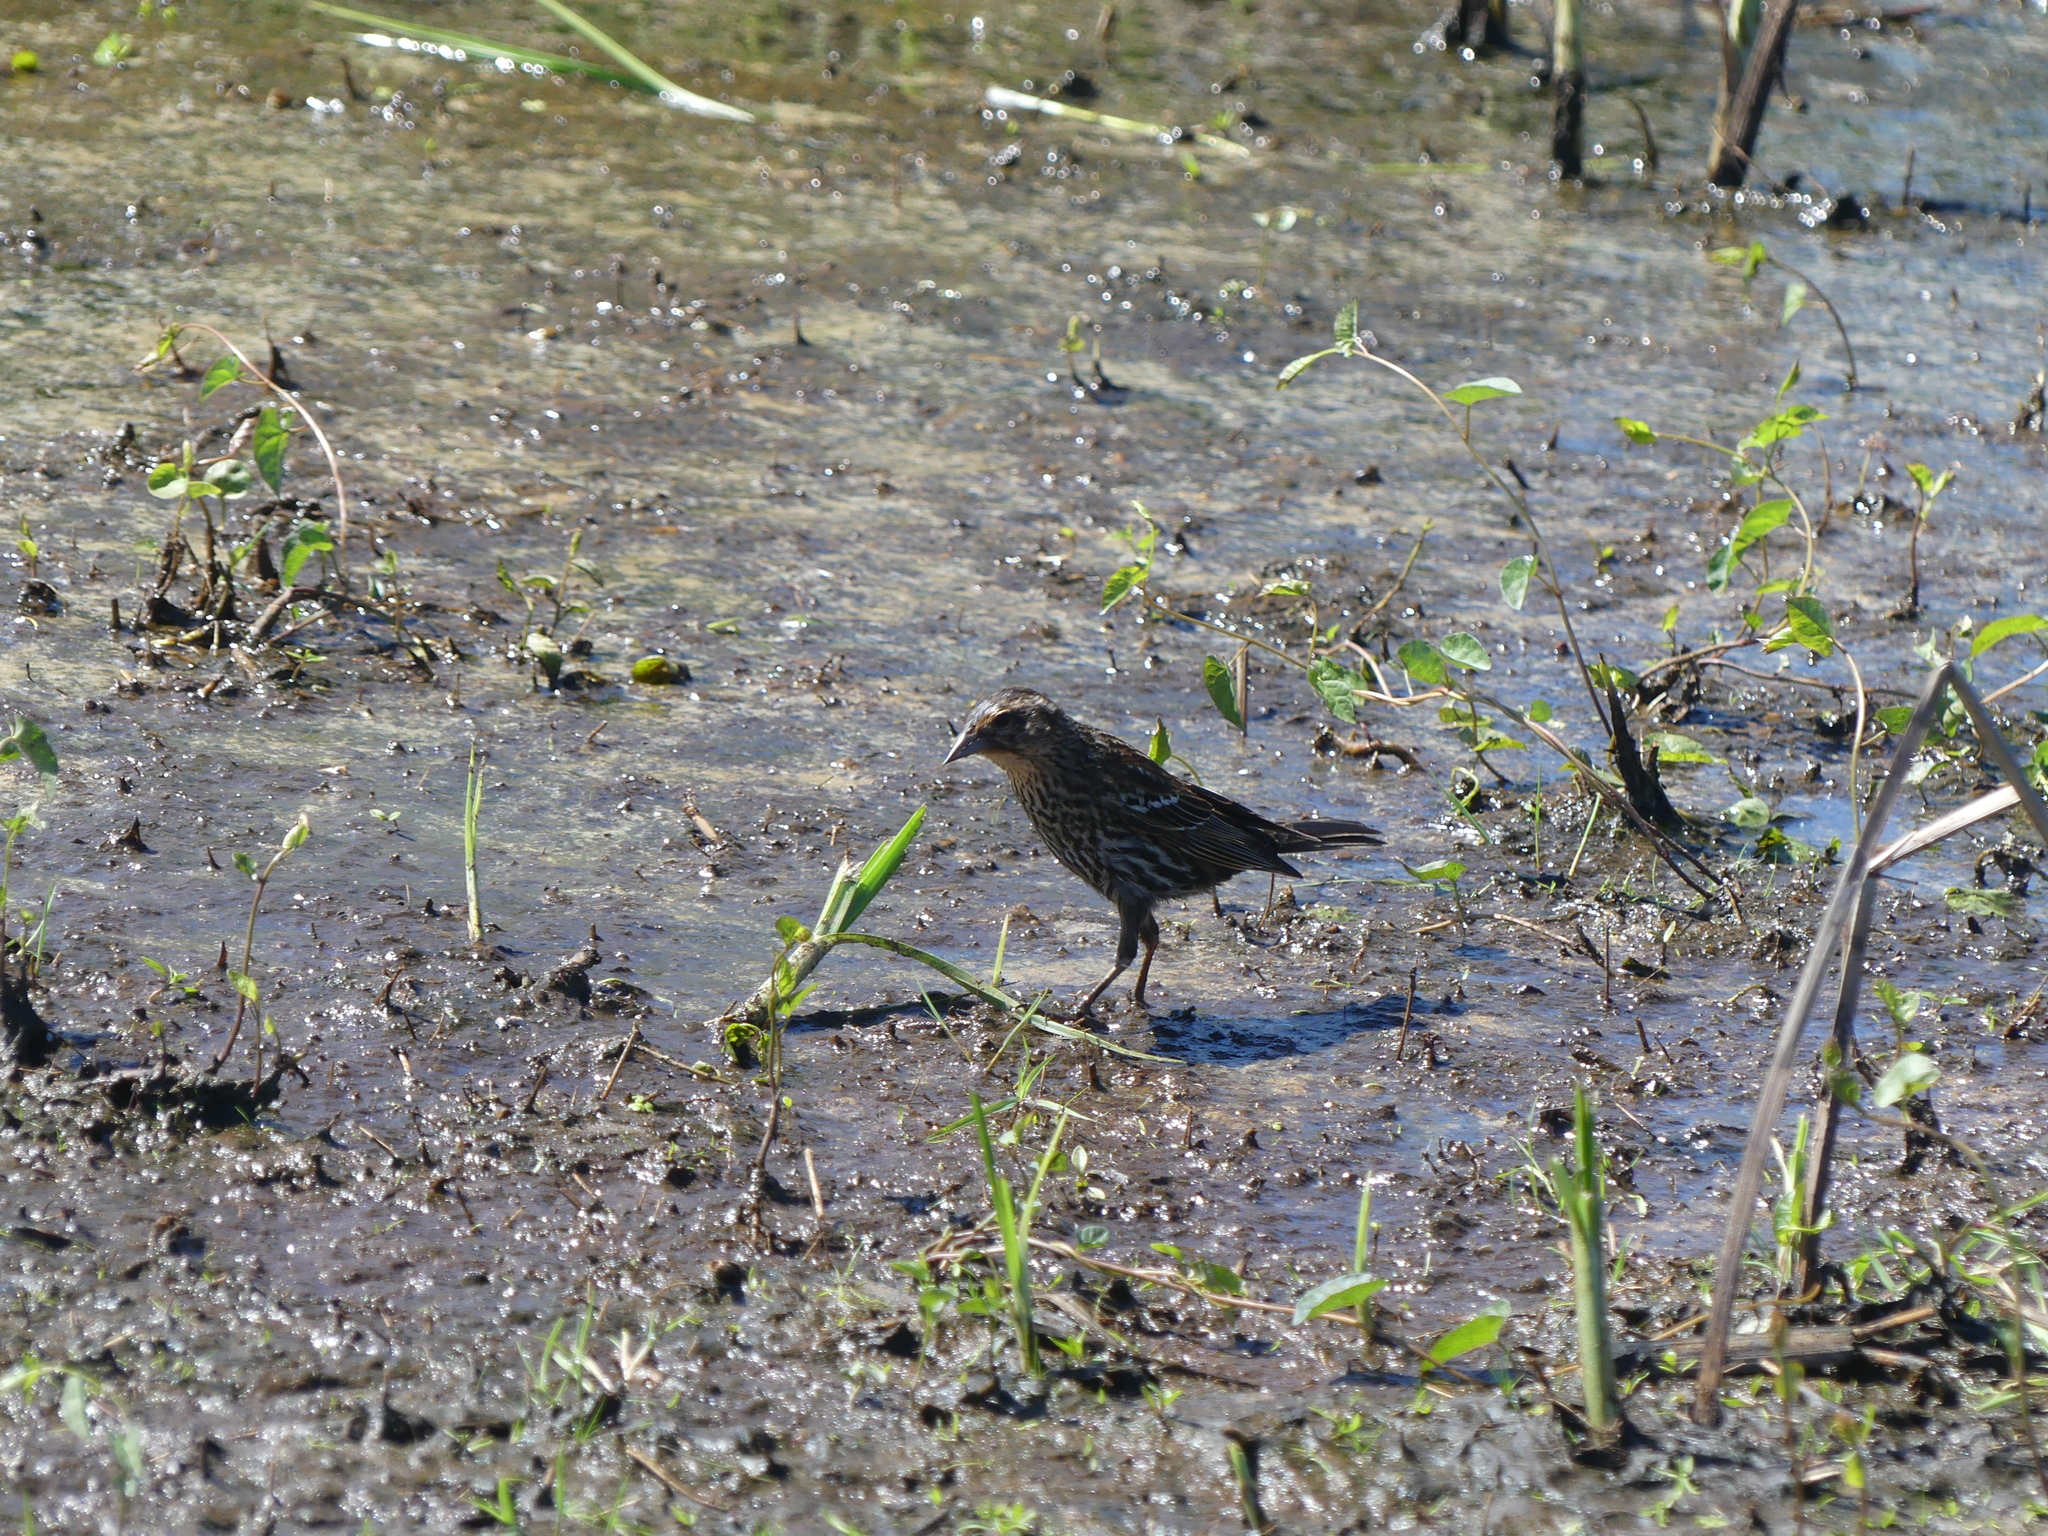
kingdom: Animalia
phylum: Chordata
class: Aves
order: Passeriformes
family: Icteridae
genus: Agelaius
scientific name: Agelaius phoeniceus
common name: Red-winged blackbird
